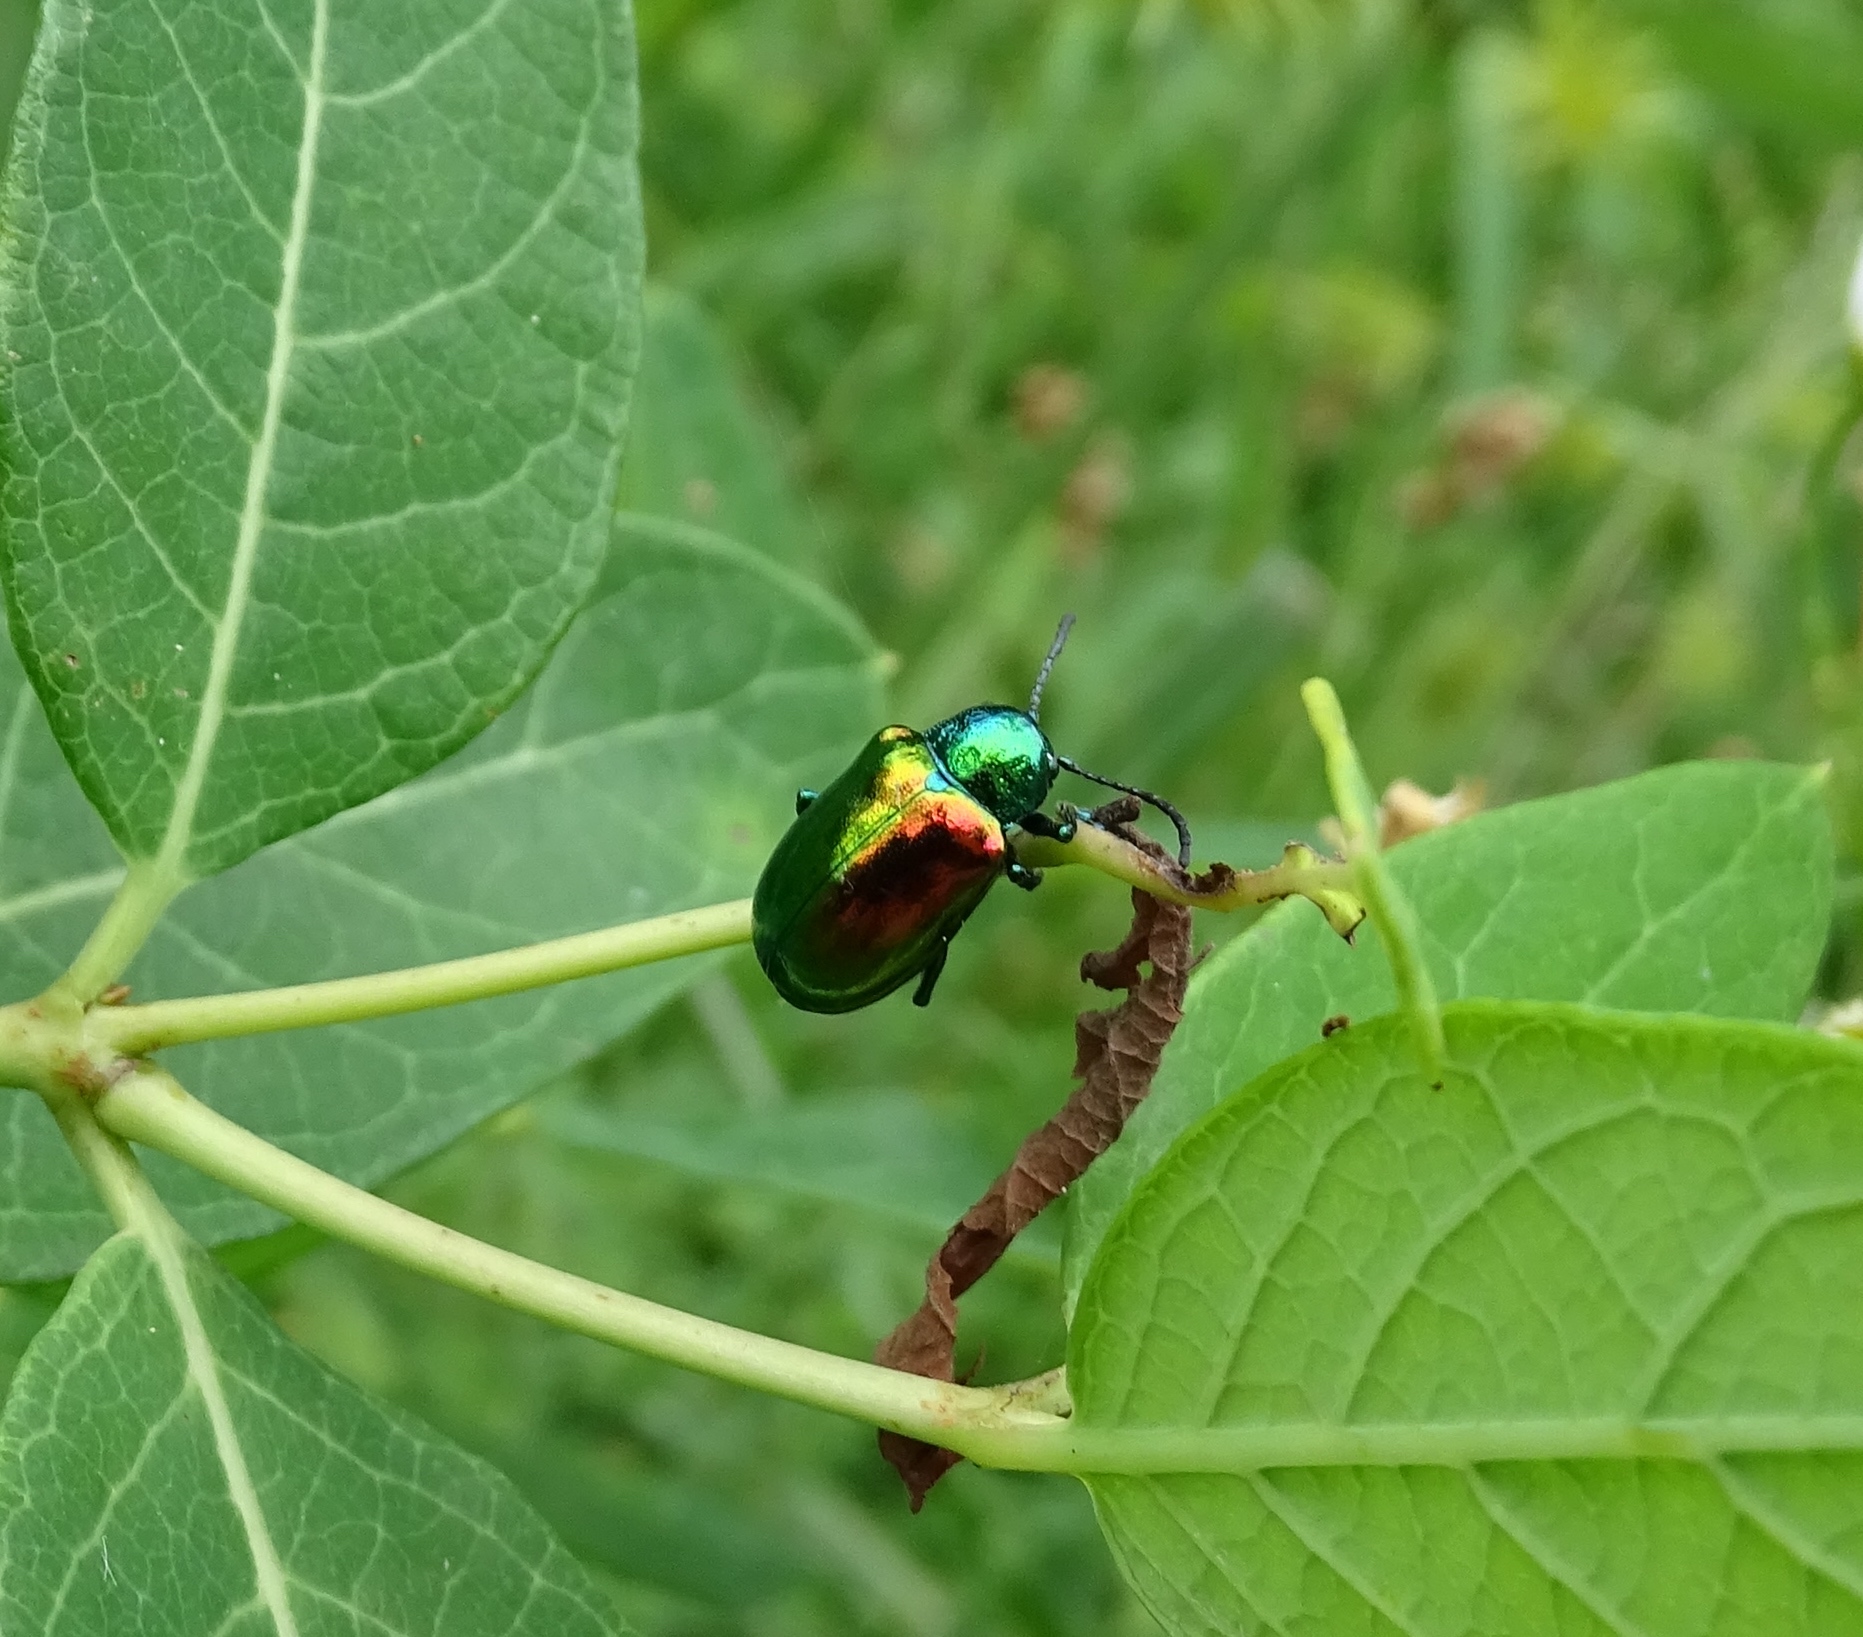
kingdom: Animalia
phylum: Arthropoda
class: Insecta
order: Coleoptera
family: Chrysomelidae
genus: Chrysochus
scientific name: Chrysochus auratus
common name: Dogbane leaf beetle
